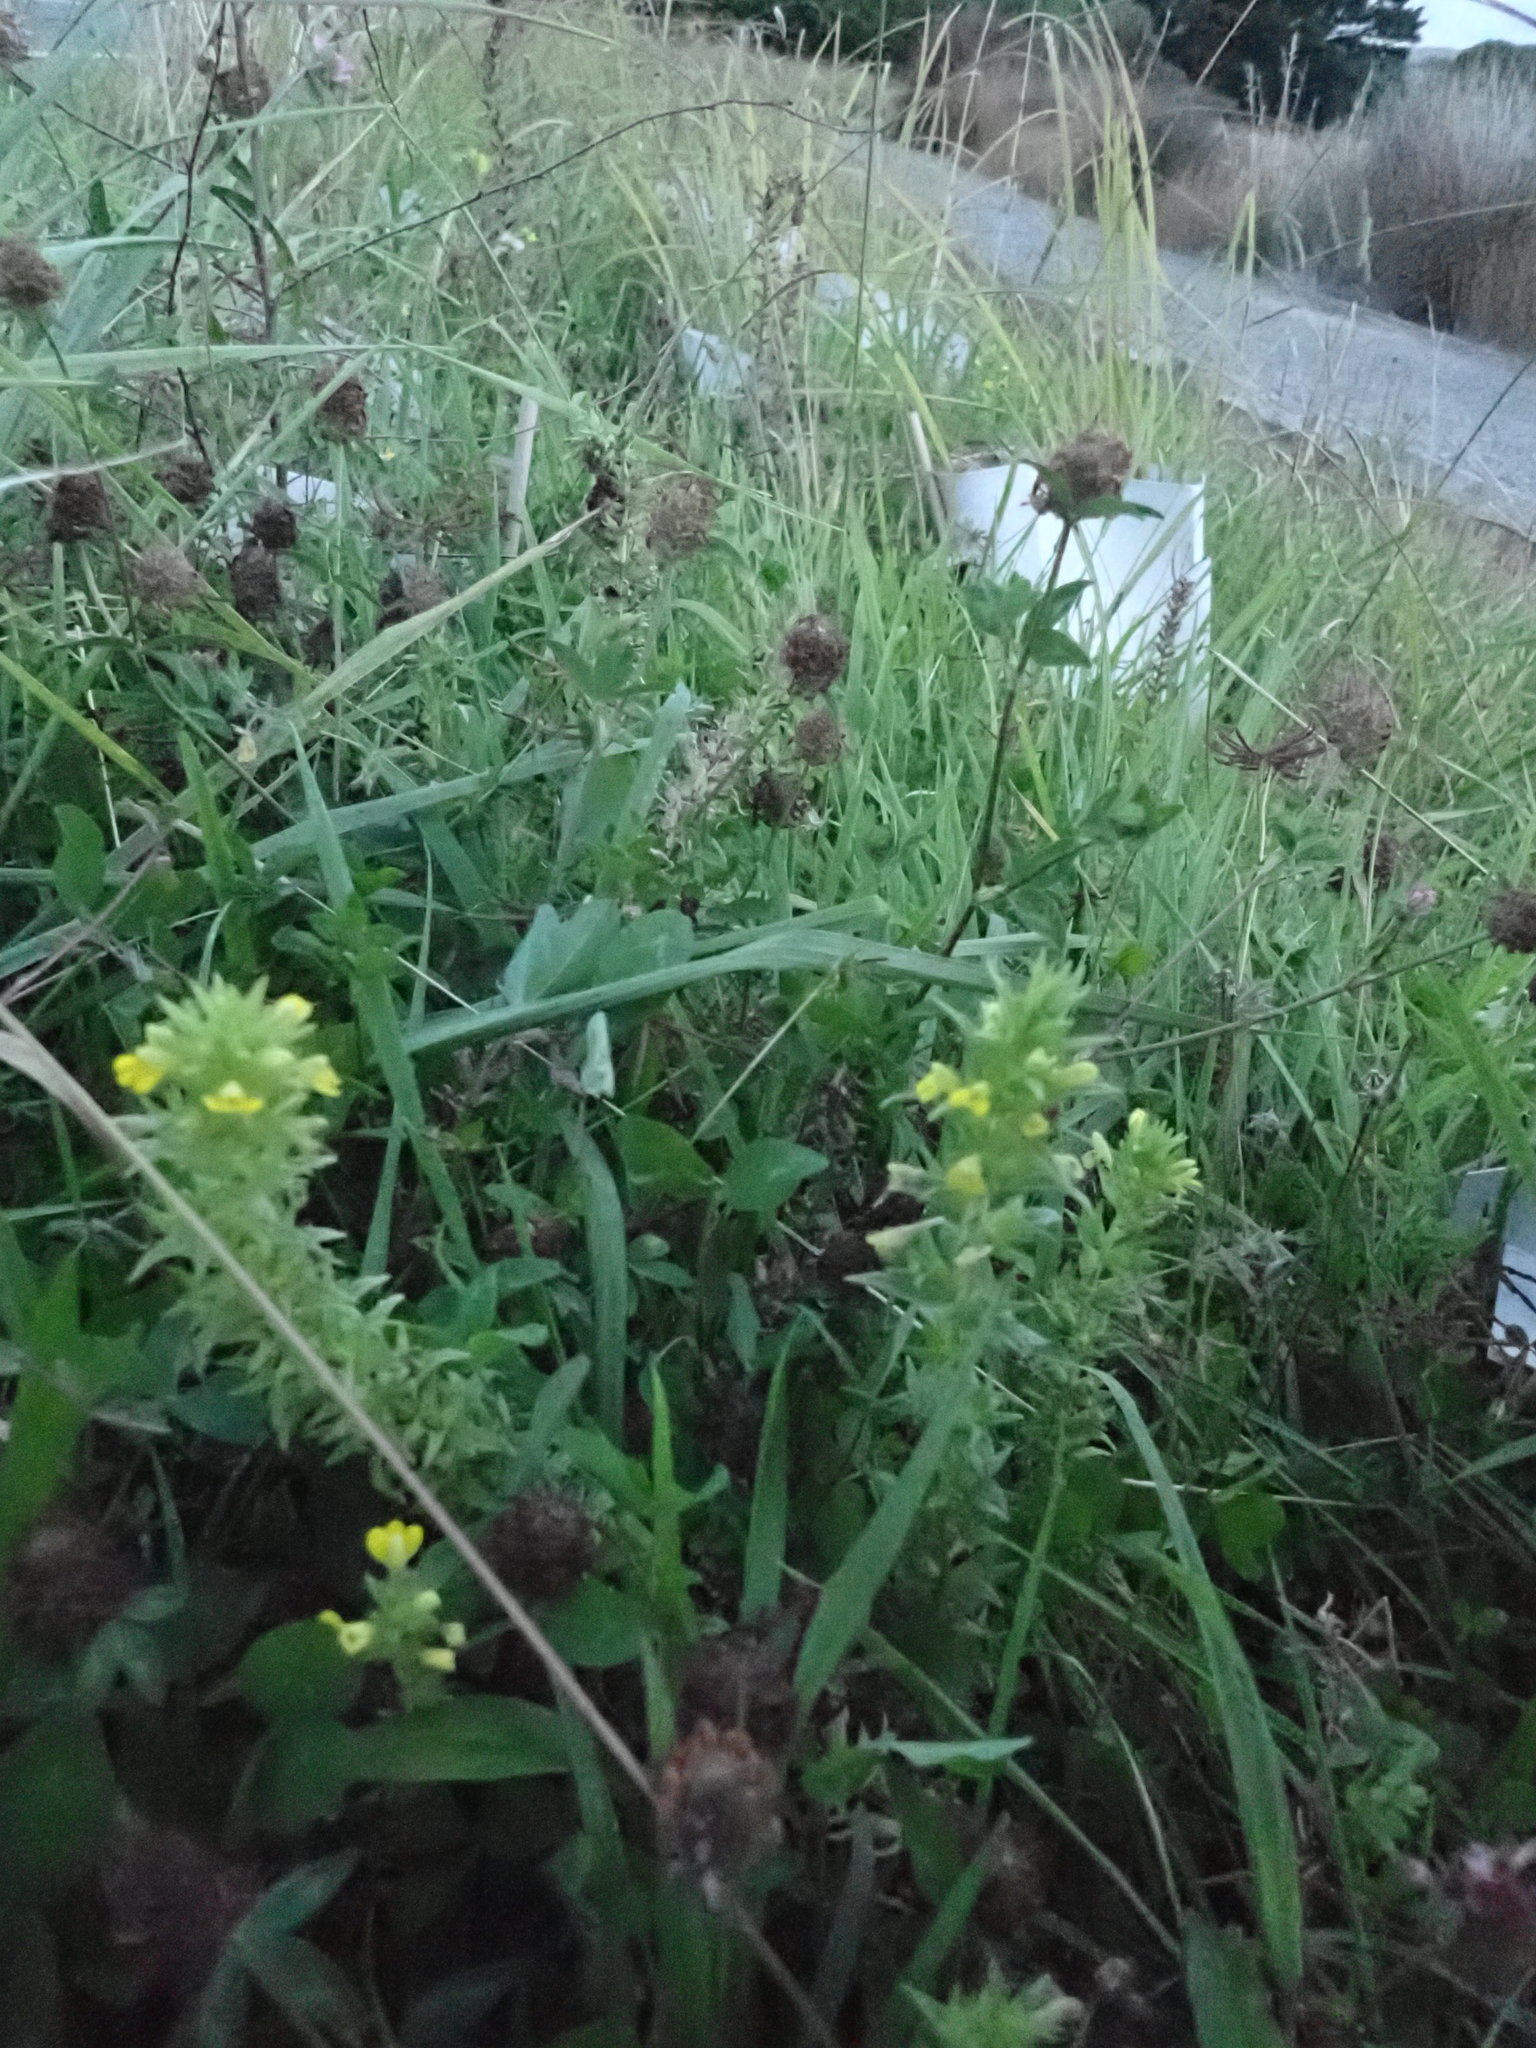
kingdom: Plantae
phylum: Tracheophyta
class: Magnoliopsida
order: Lamiales
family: Orobanchaceae
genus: Bellardia
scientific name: Bellardia viscosa
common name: Sticky parentucellia
